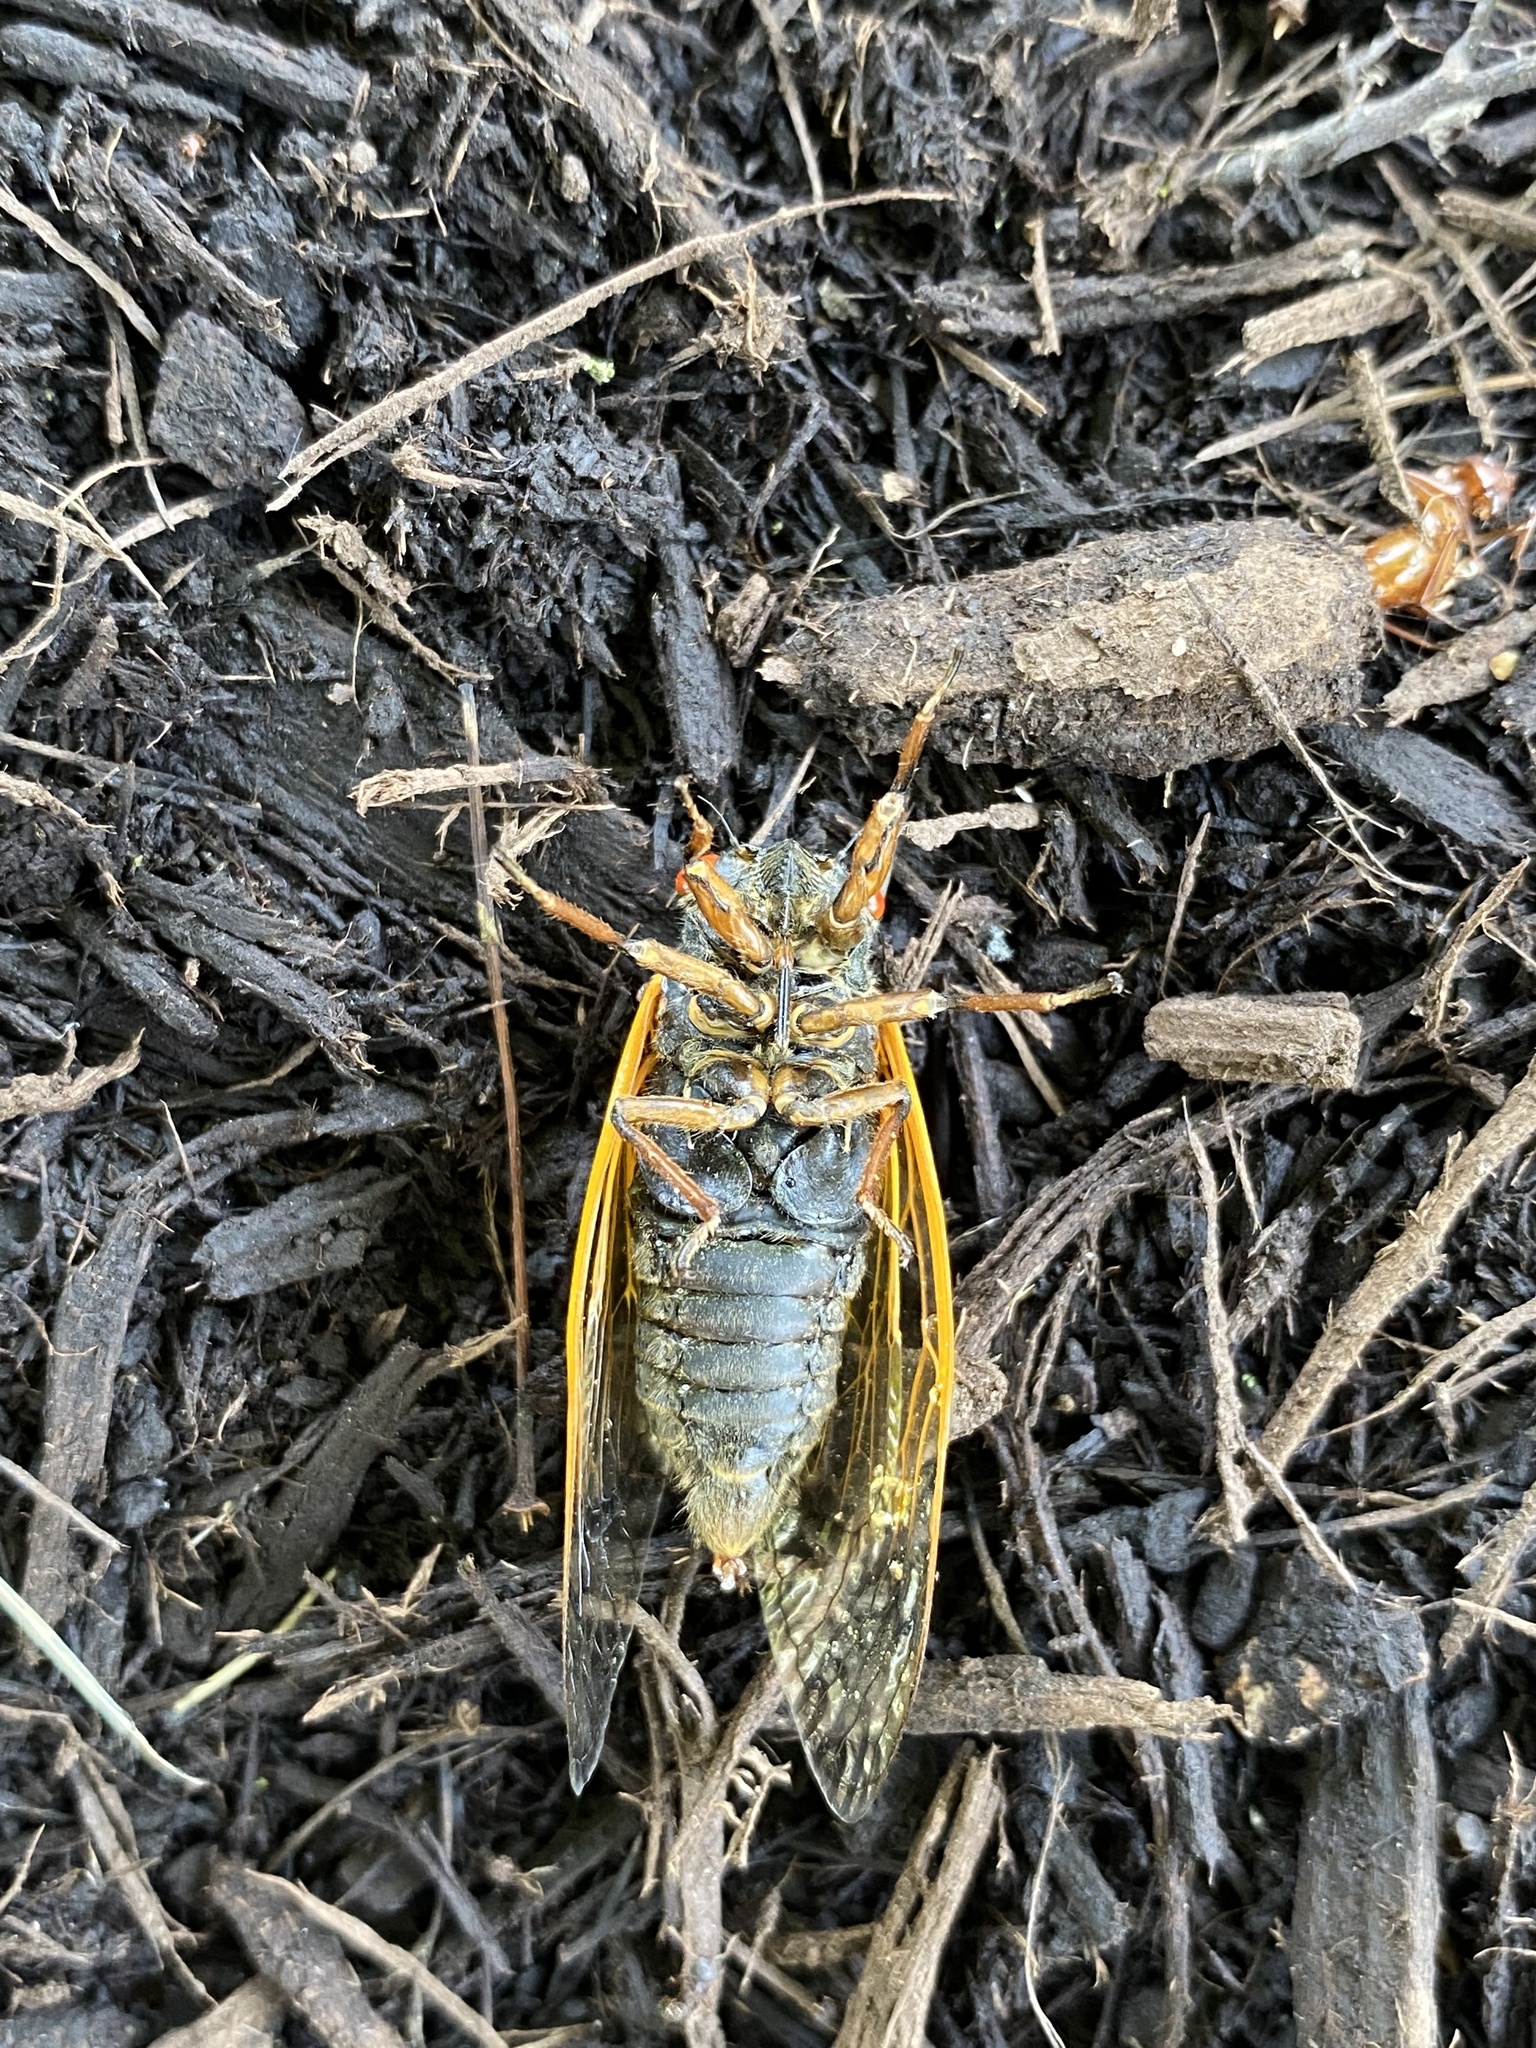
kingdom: Animalia
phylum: Arthropoda
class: Insecta
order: Hemiptera
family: Cicadidae
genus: Magicicada
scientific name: Magicicada cassini
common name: Cassin's 17-year cicada
